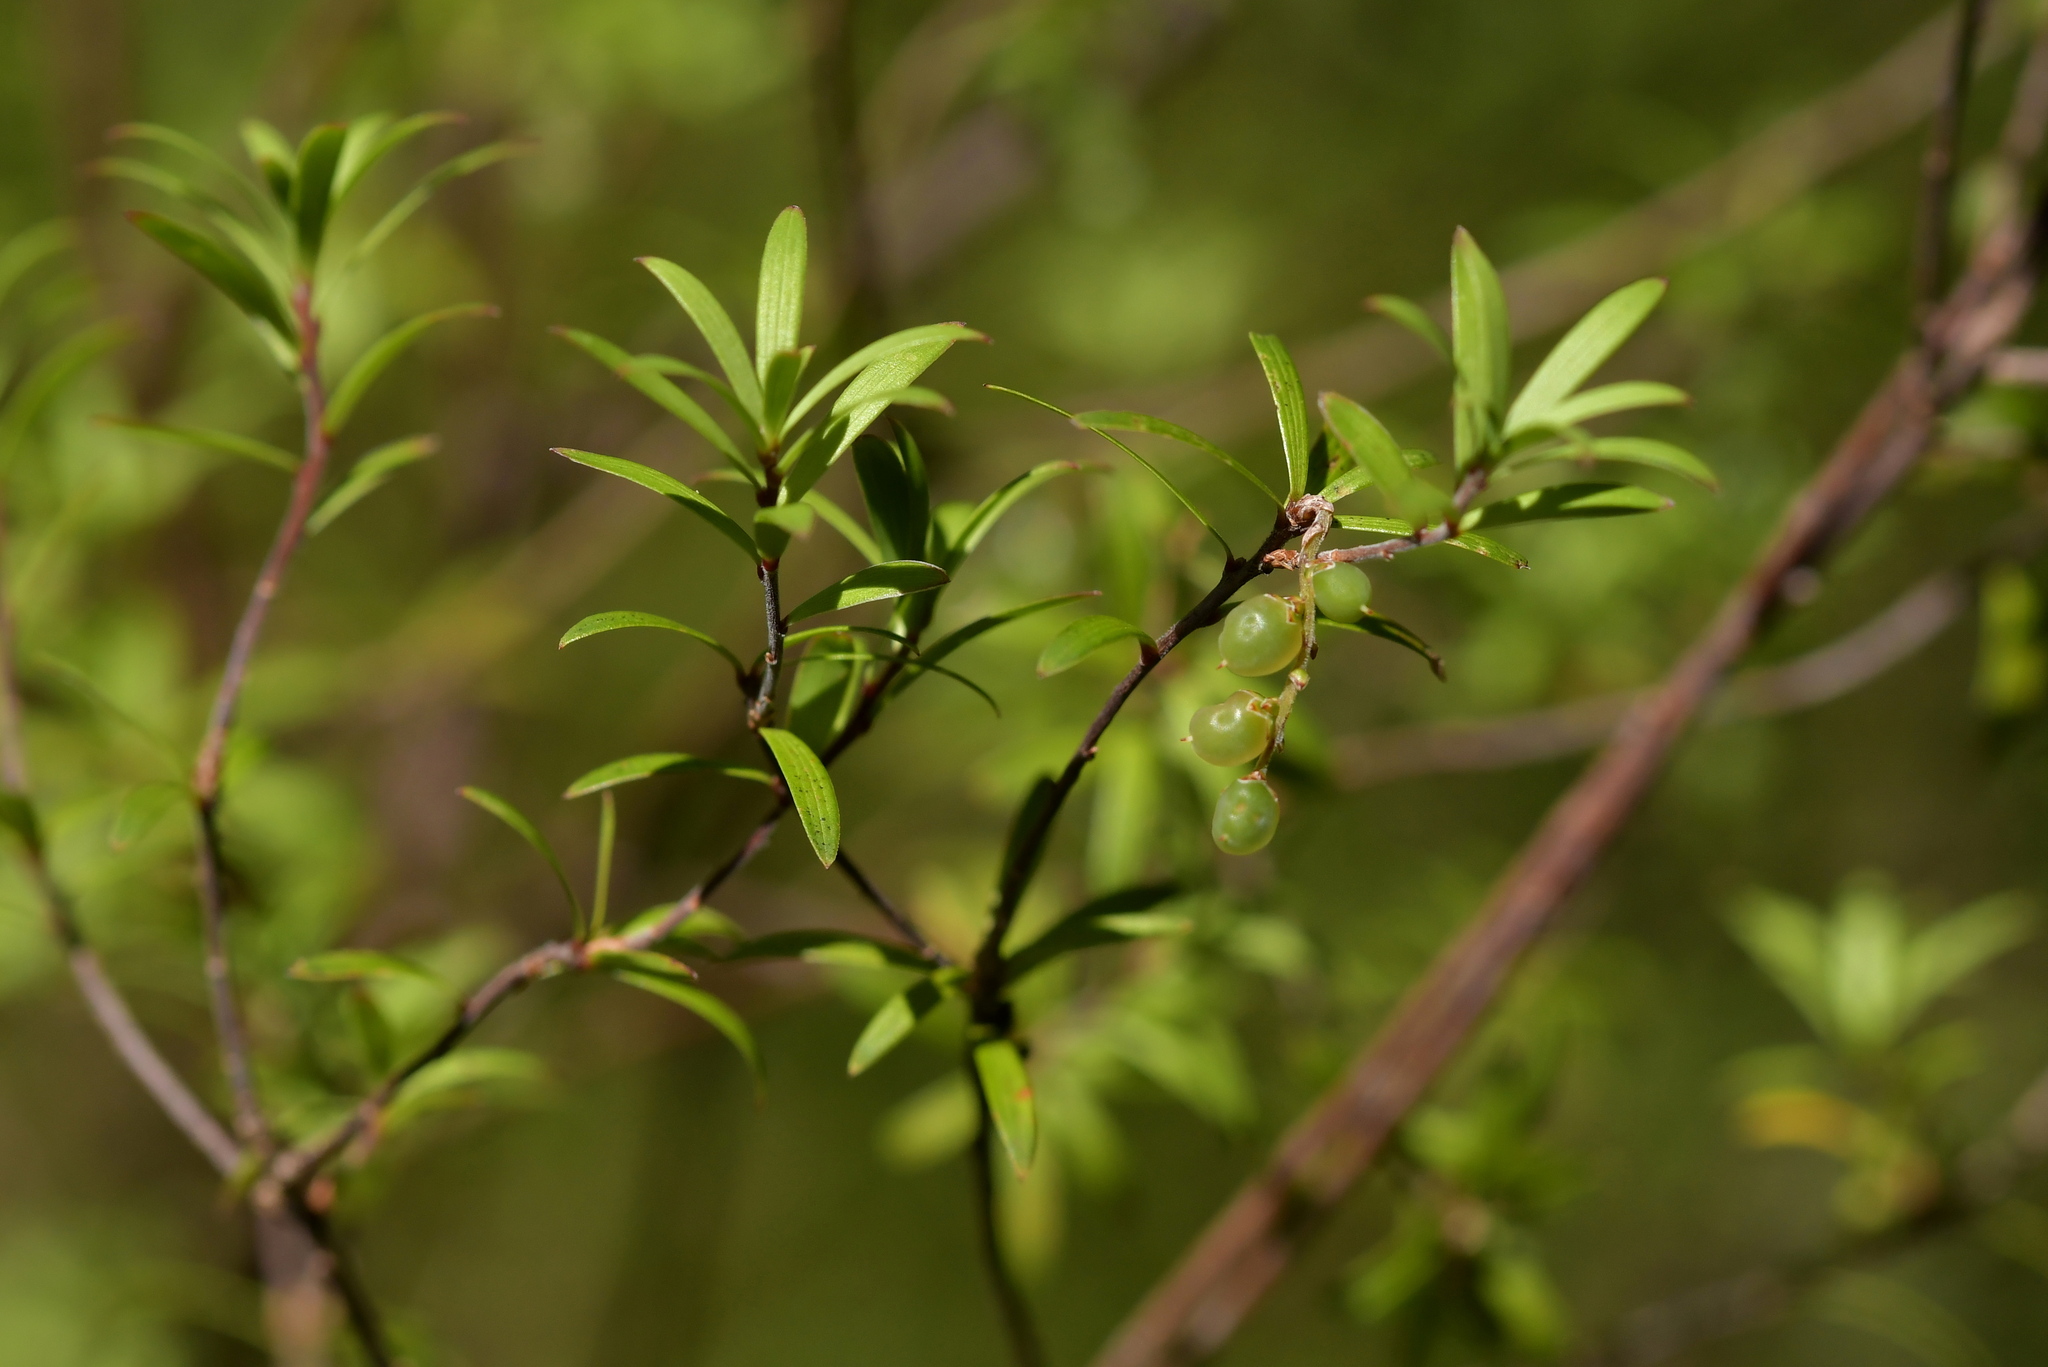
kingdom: Plantae
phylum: Tracheophyta
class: Magnoliopsida
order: Ericales
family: Ericaceae
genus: Leucopogon
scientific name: Leucopogon fasciculatus
